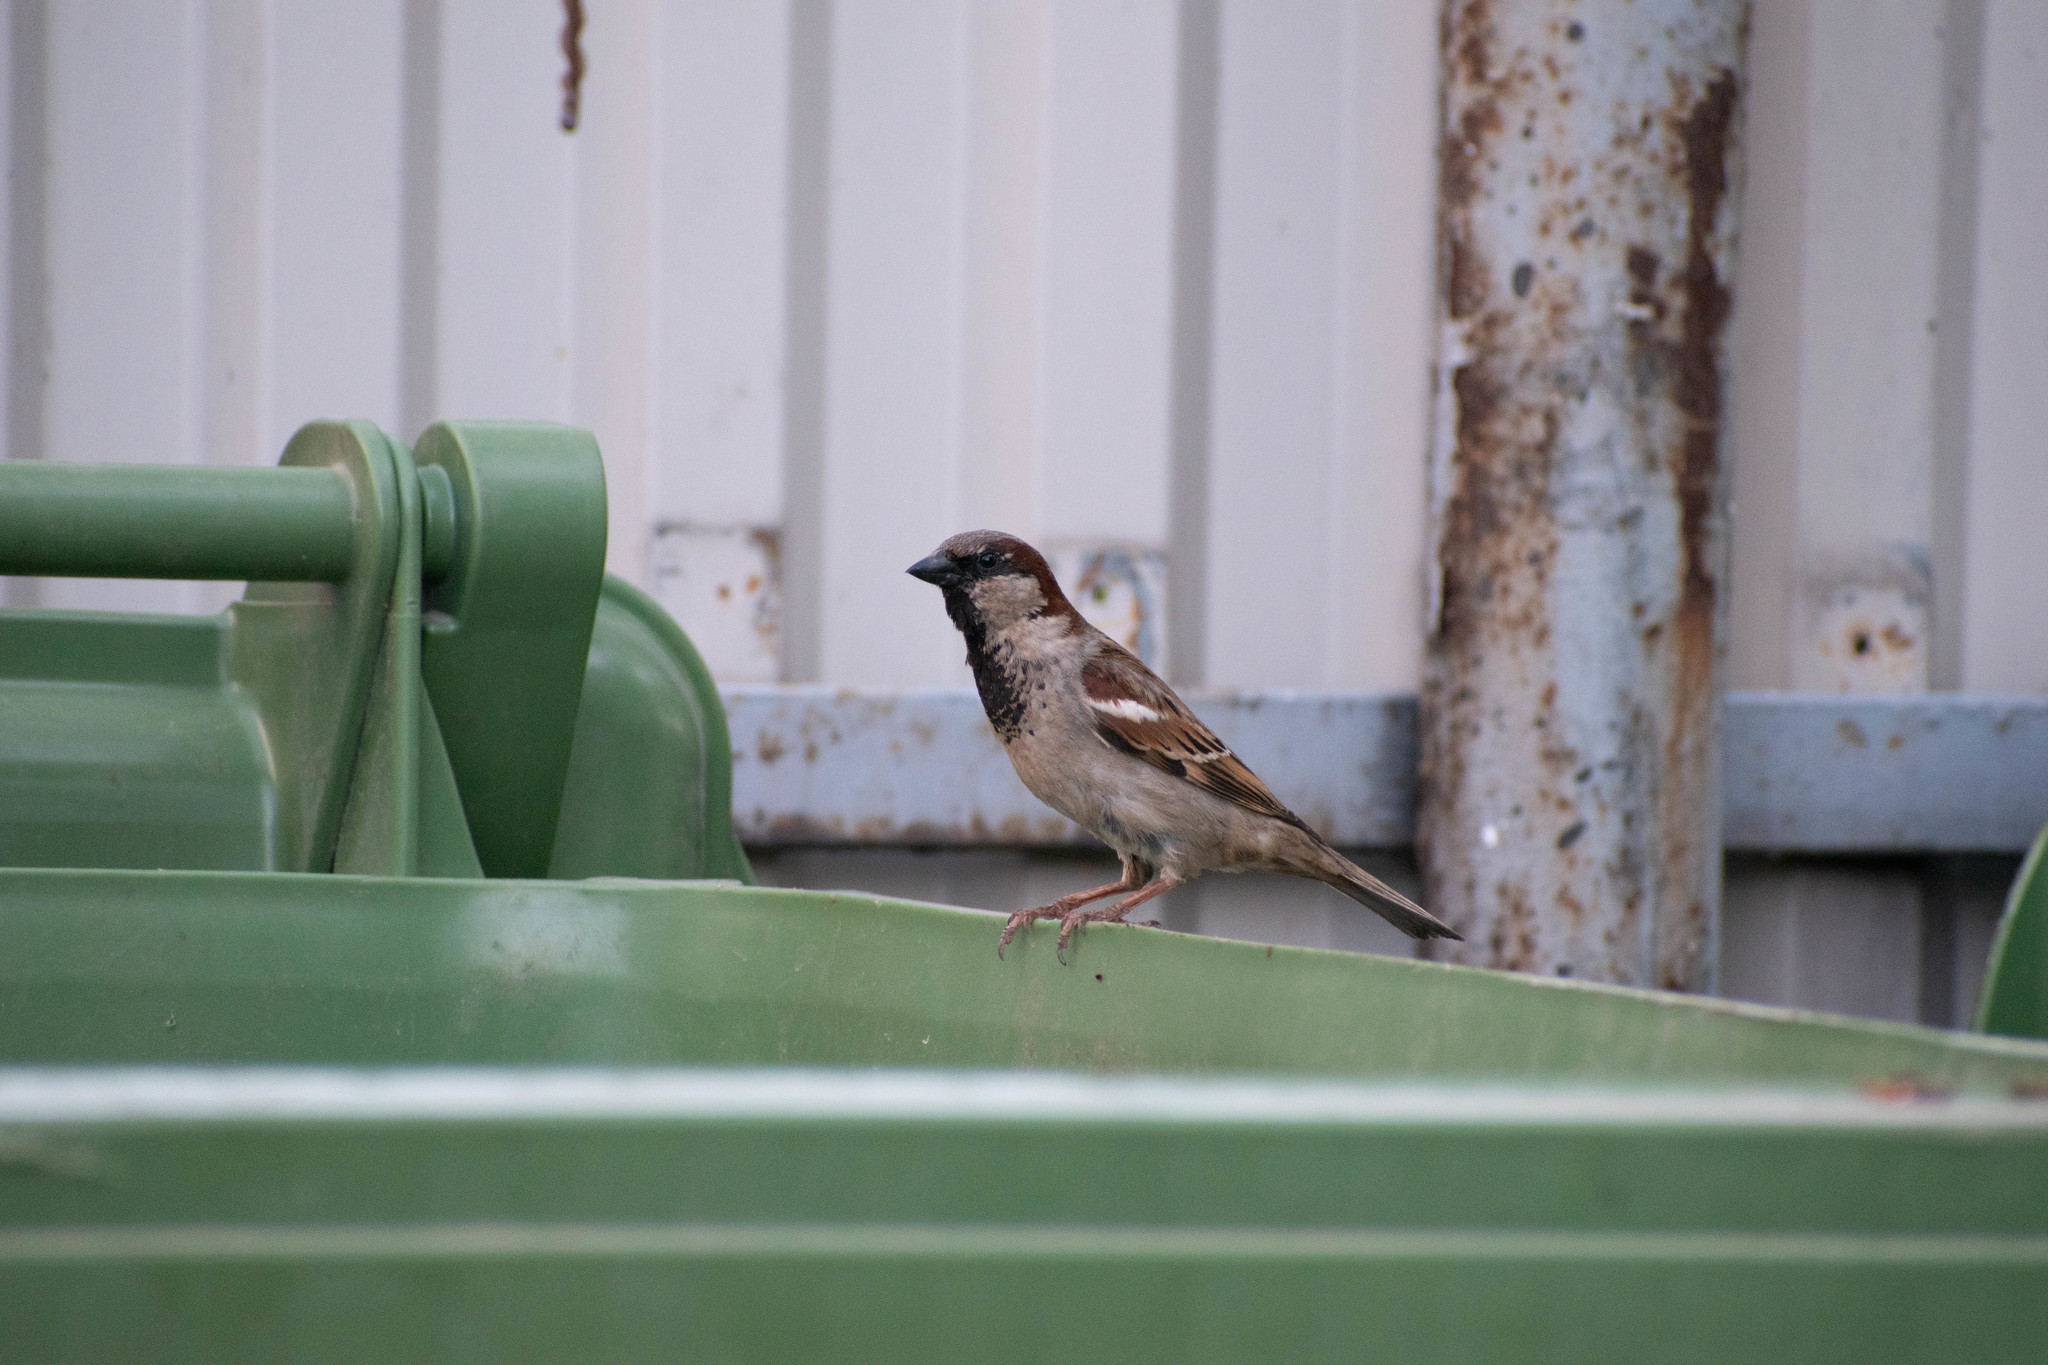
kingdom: Animalia
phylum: Chordata
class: Aves
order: Passeriformes
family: Passeridae
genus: Passer
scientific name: Passer domesticus
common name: House sparrow
